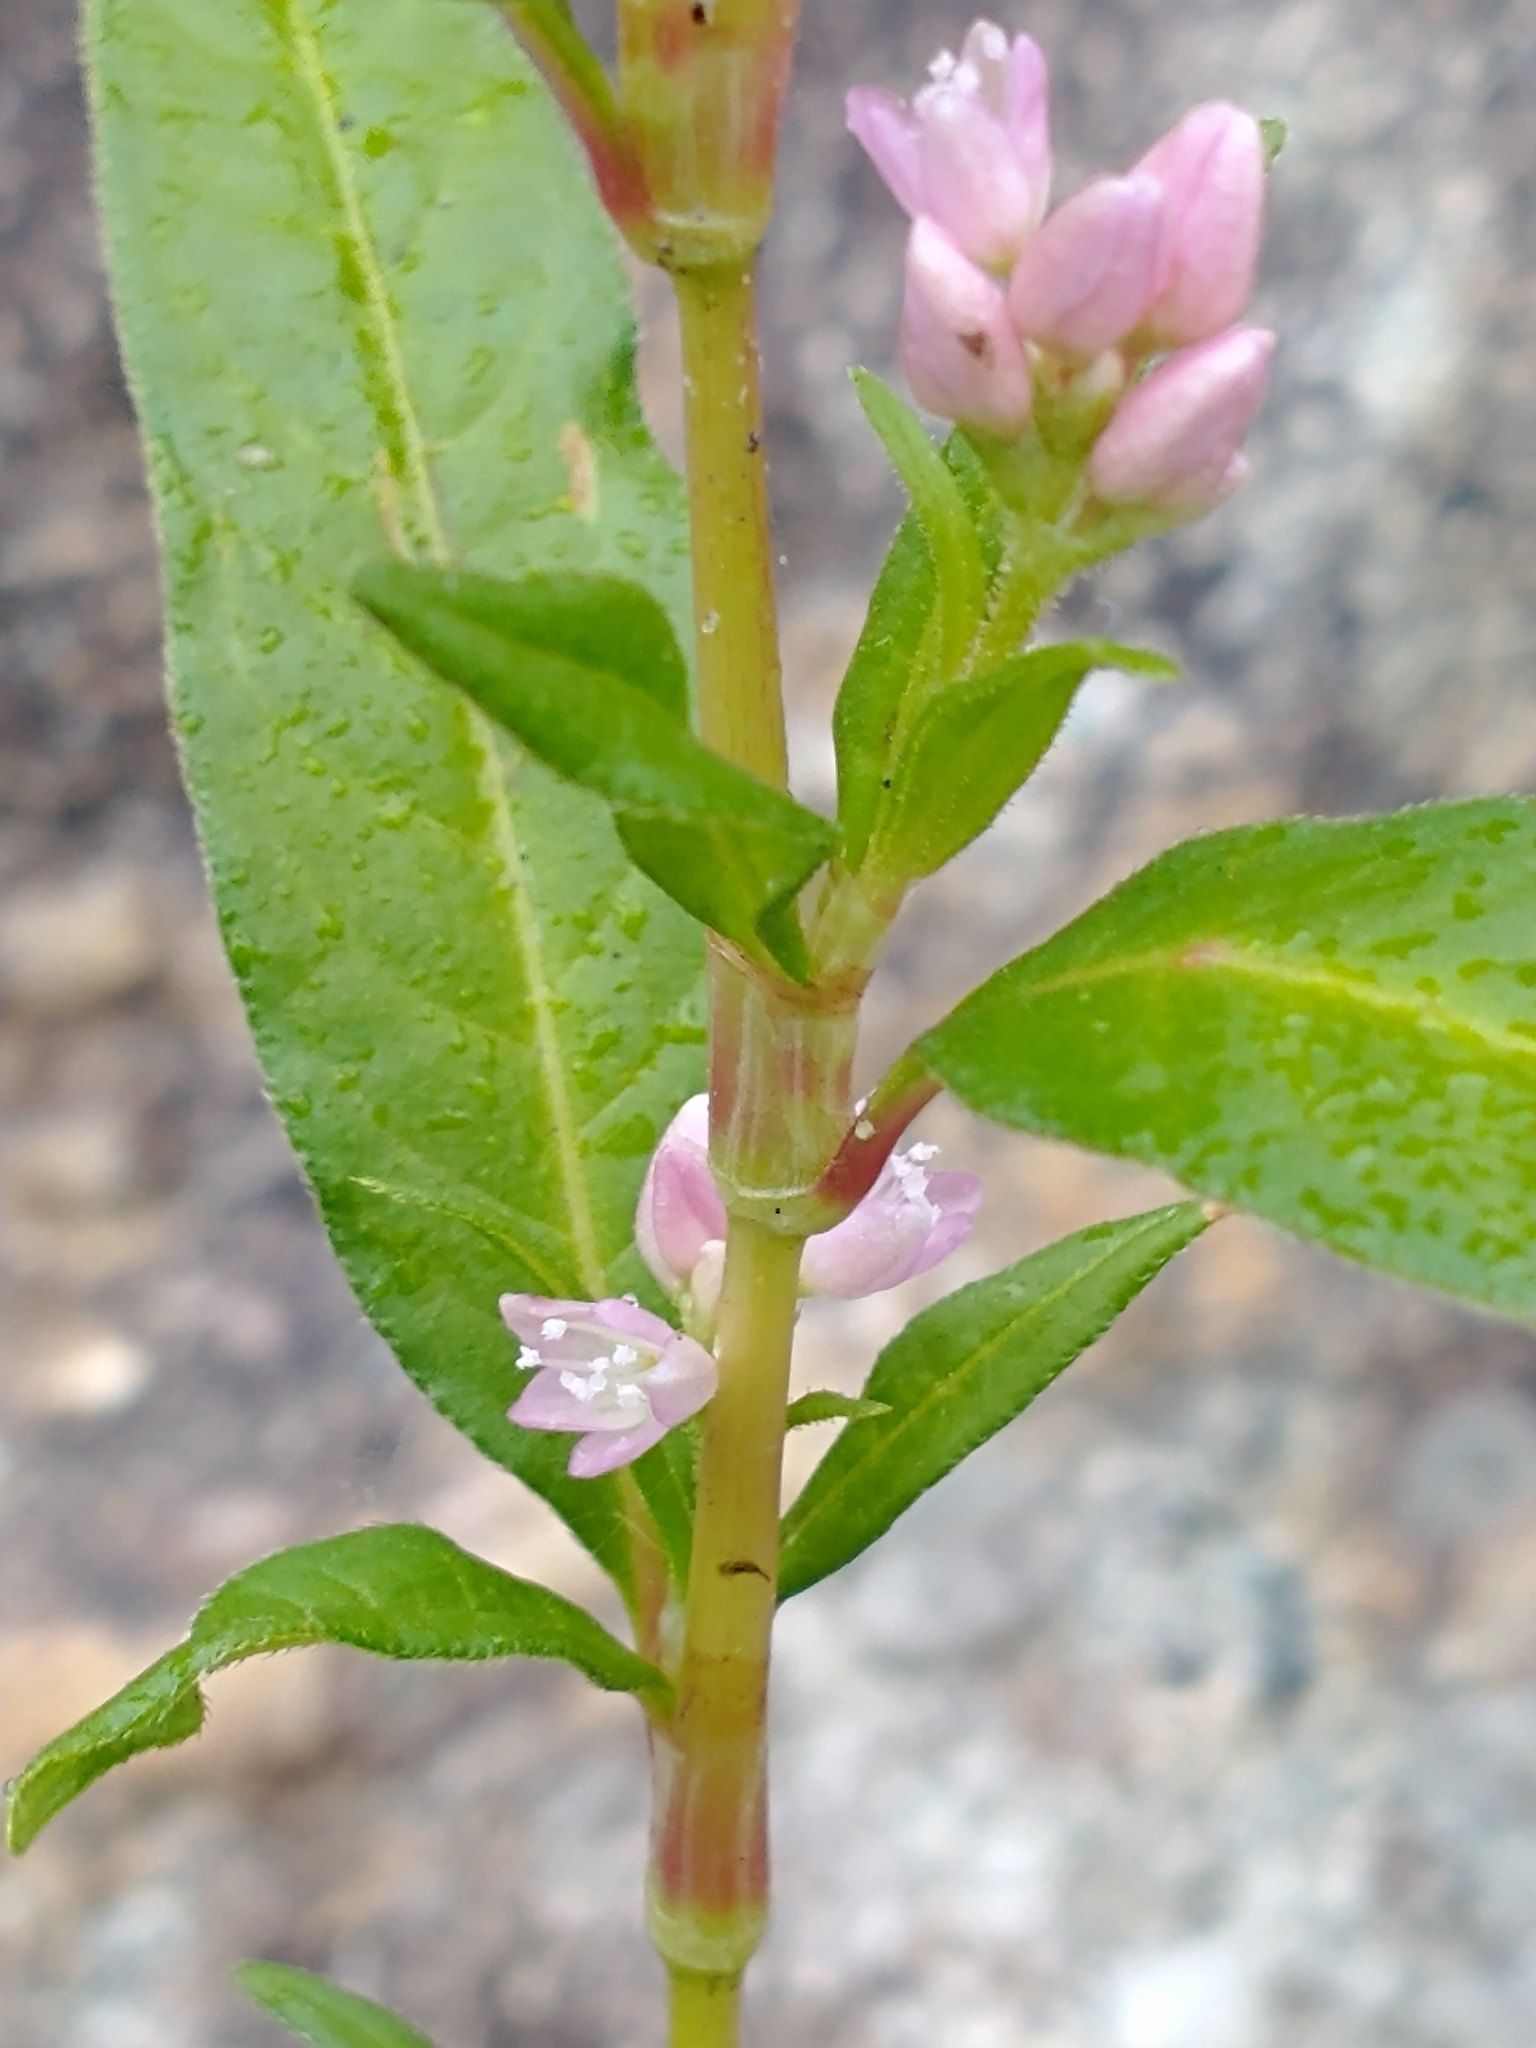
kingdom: Plantae
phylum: Tracheophyta
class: Magnoliopsida
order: Caryophyllales
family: Polygonaceae
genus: Persicaria
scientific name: Persicaria pensylvanica
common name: Pinkweed
